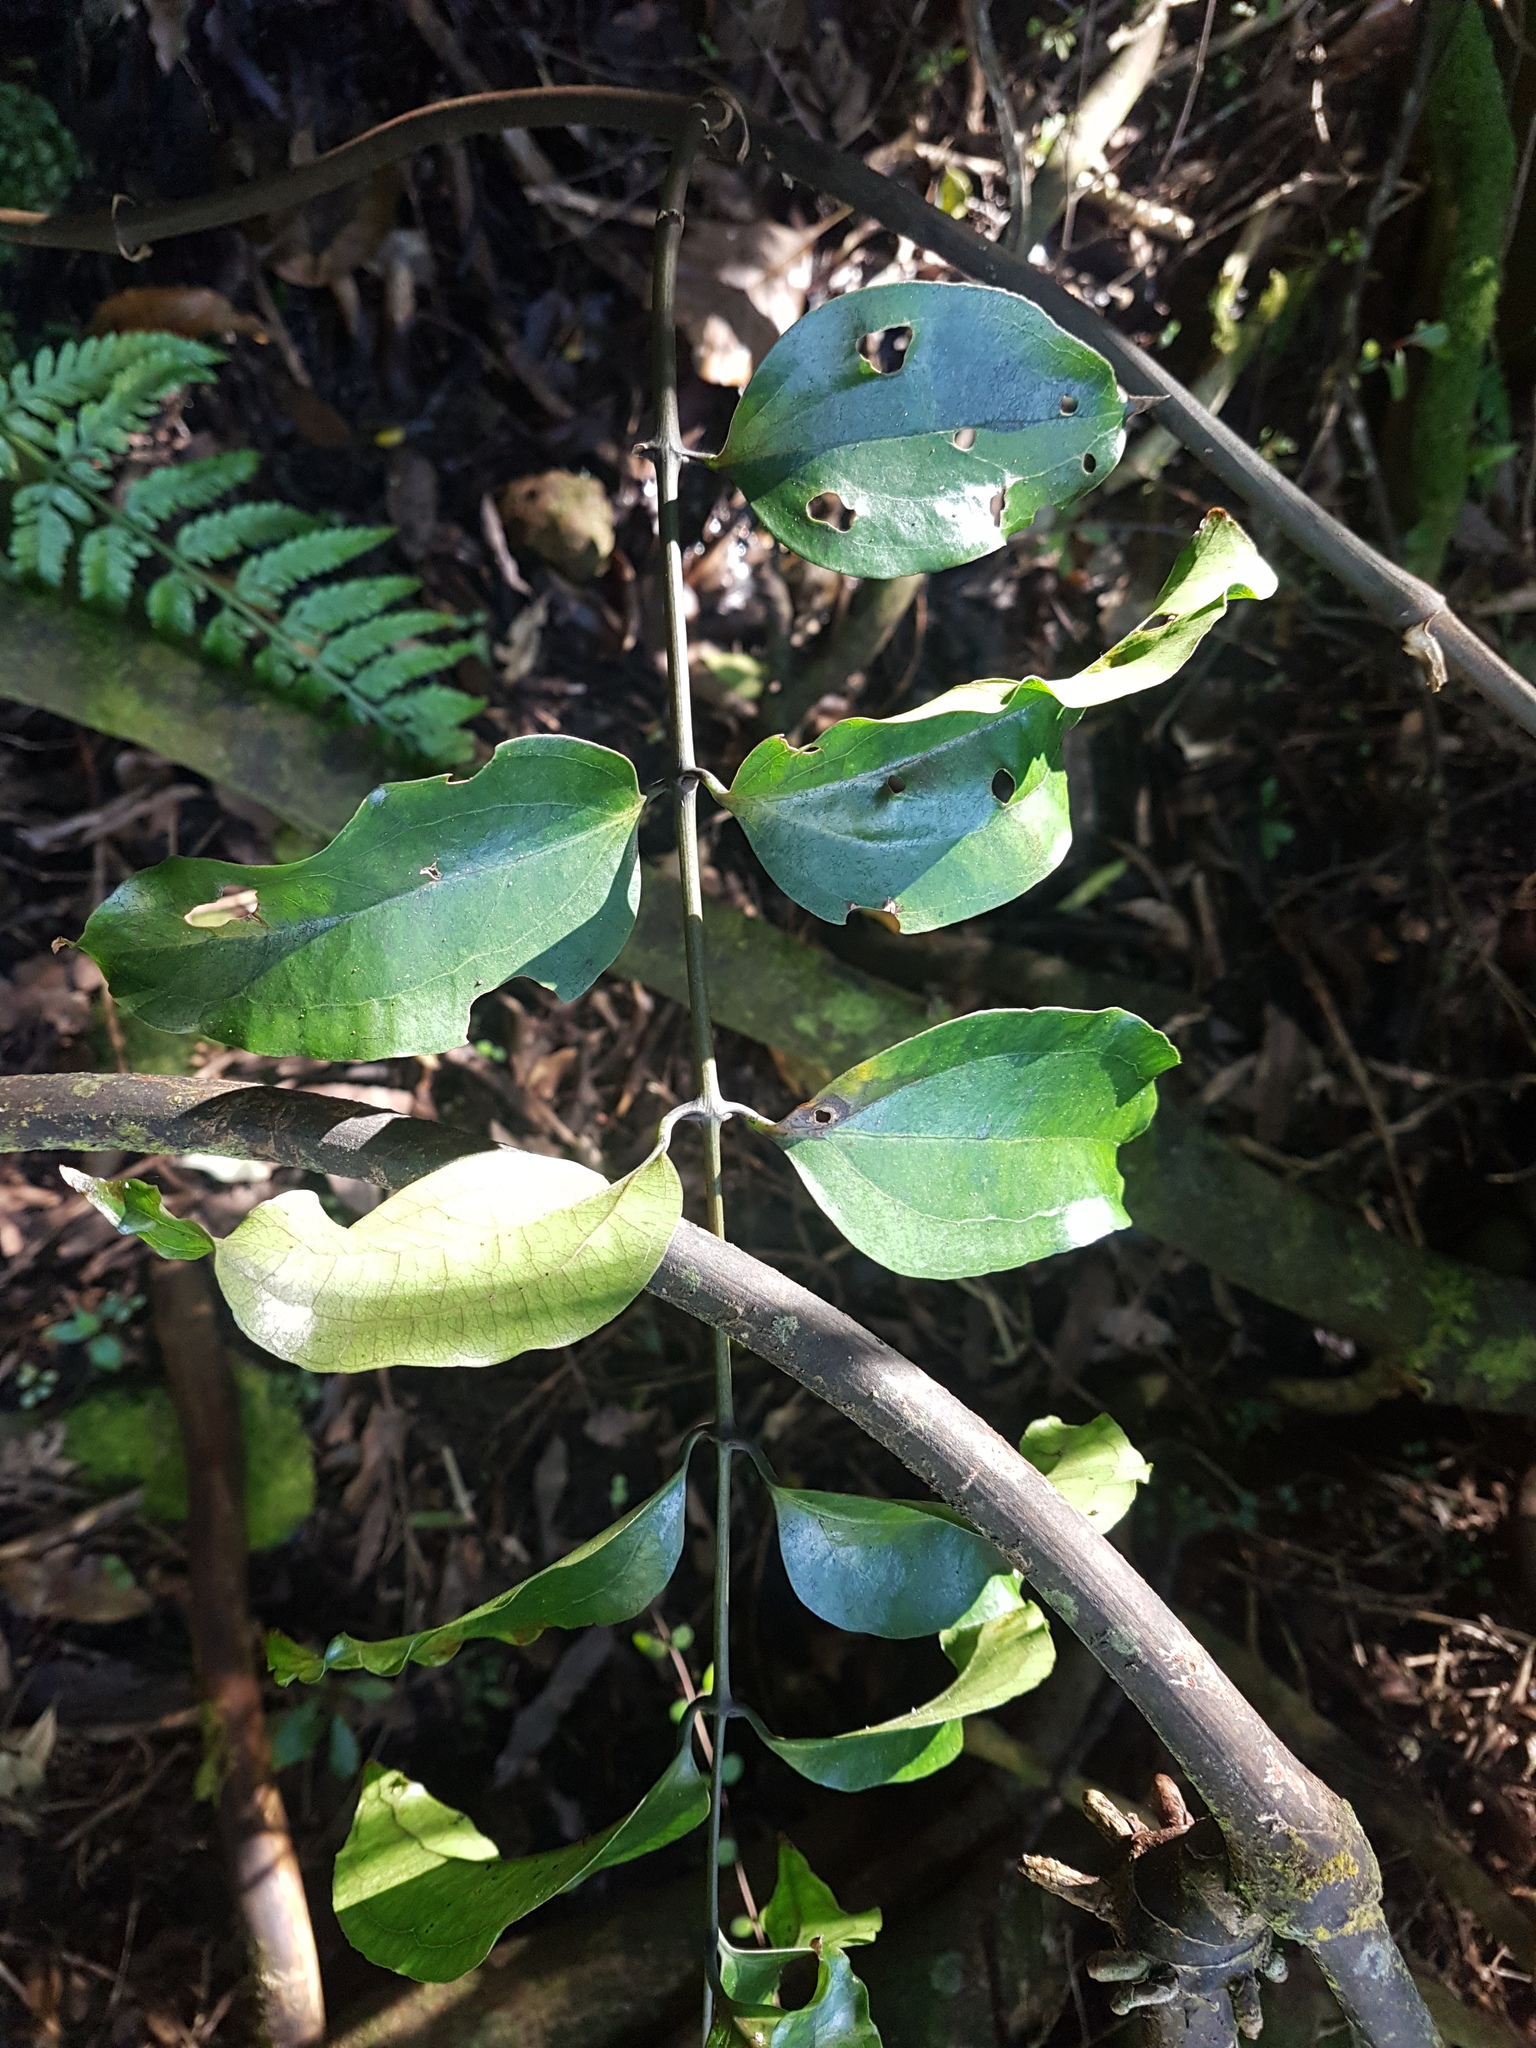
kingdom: Plantae
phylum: Tracheophyta
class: Liliopsida
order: Liliales
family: Ripogonaceae
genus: Ripogonum
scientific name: Ripogonum scandens
